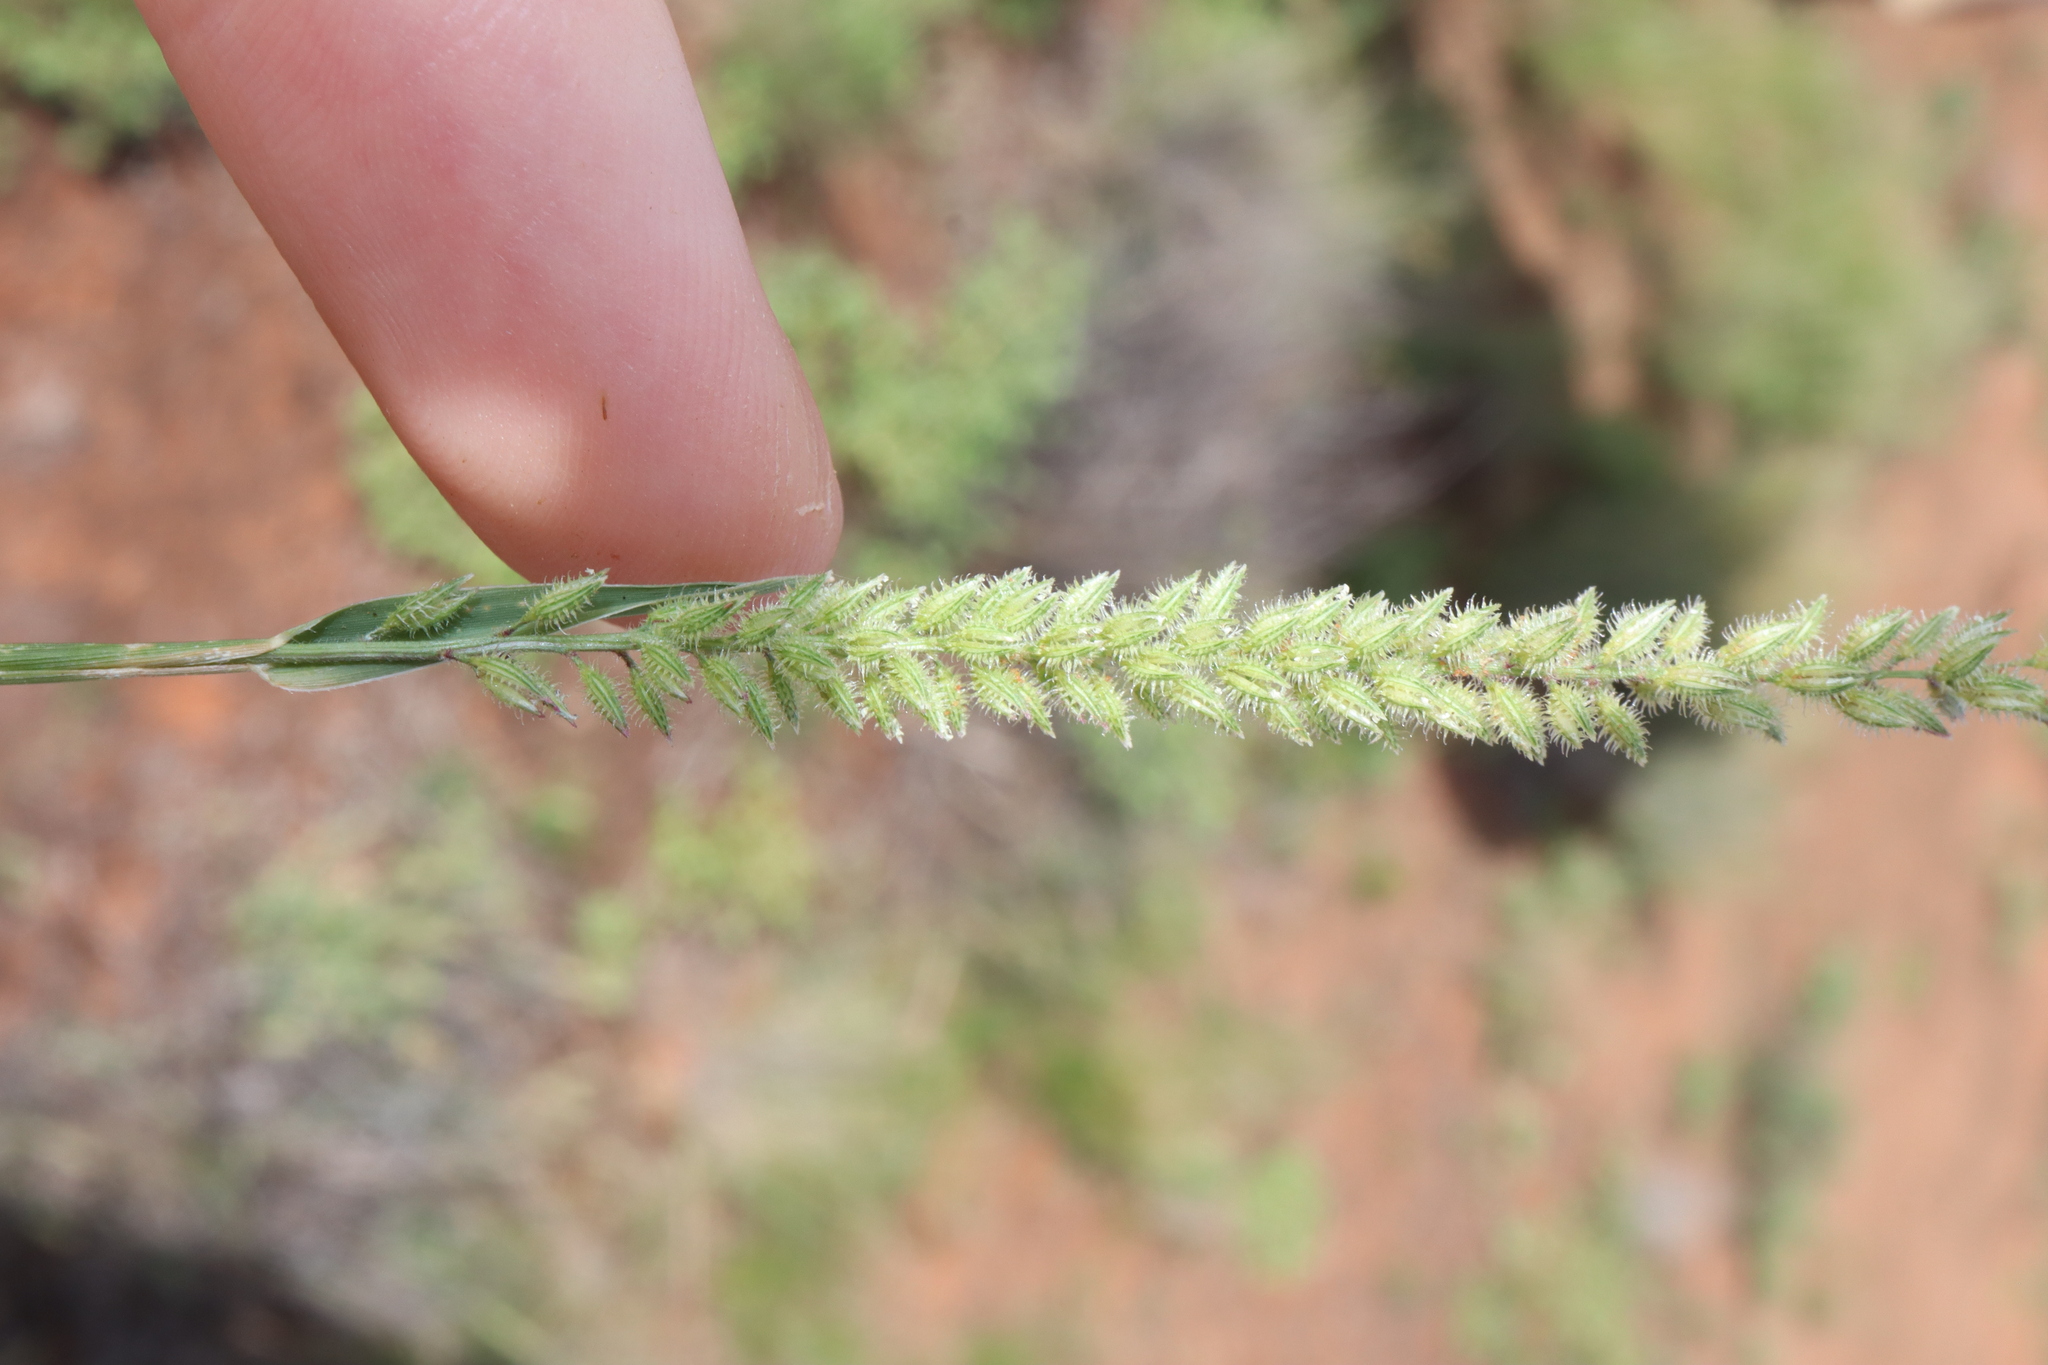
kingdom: Plantae
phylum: Tracheophyta
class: Liliopsida
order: Poales
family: Poaceae
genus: Tragus
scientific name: Tragus australianus
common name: Australian bur-grass
